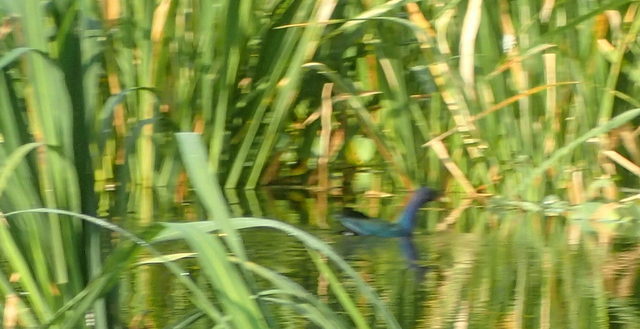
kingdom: Animalia
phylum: Chordata
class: Aves
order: Gruiformes
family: Rallidae
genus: Porphyrio
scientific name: Porphyrio martinica
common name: Purple gallinule
